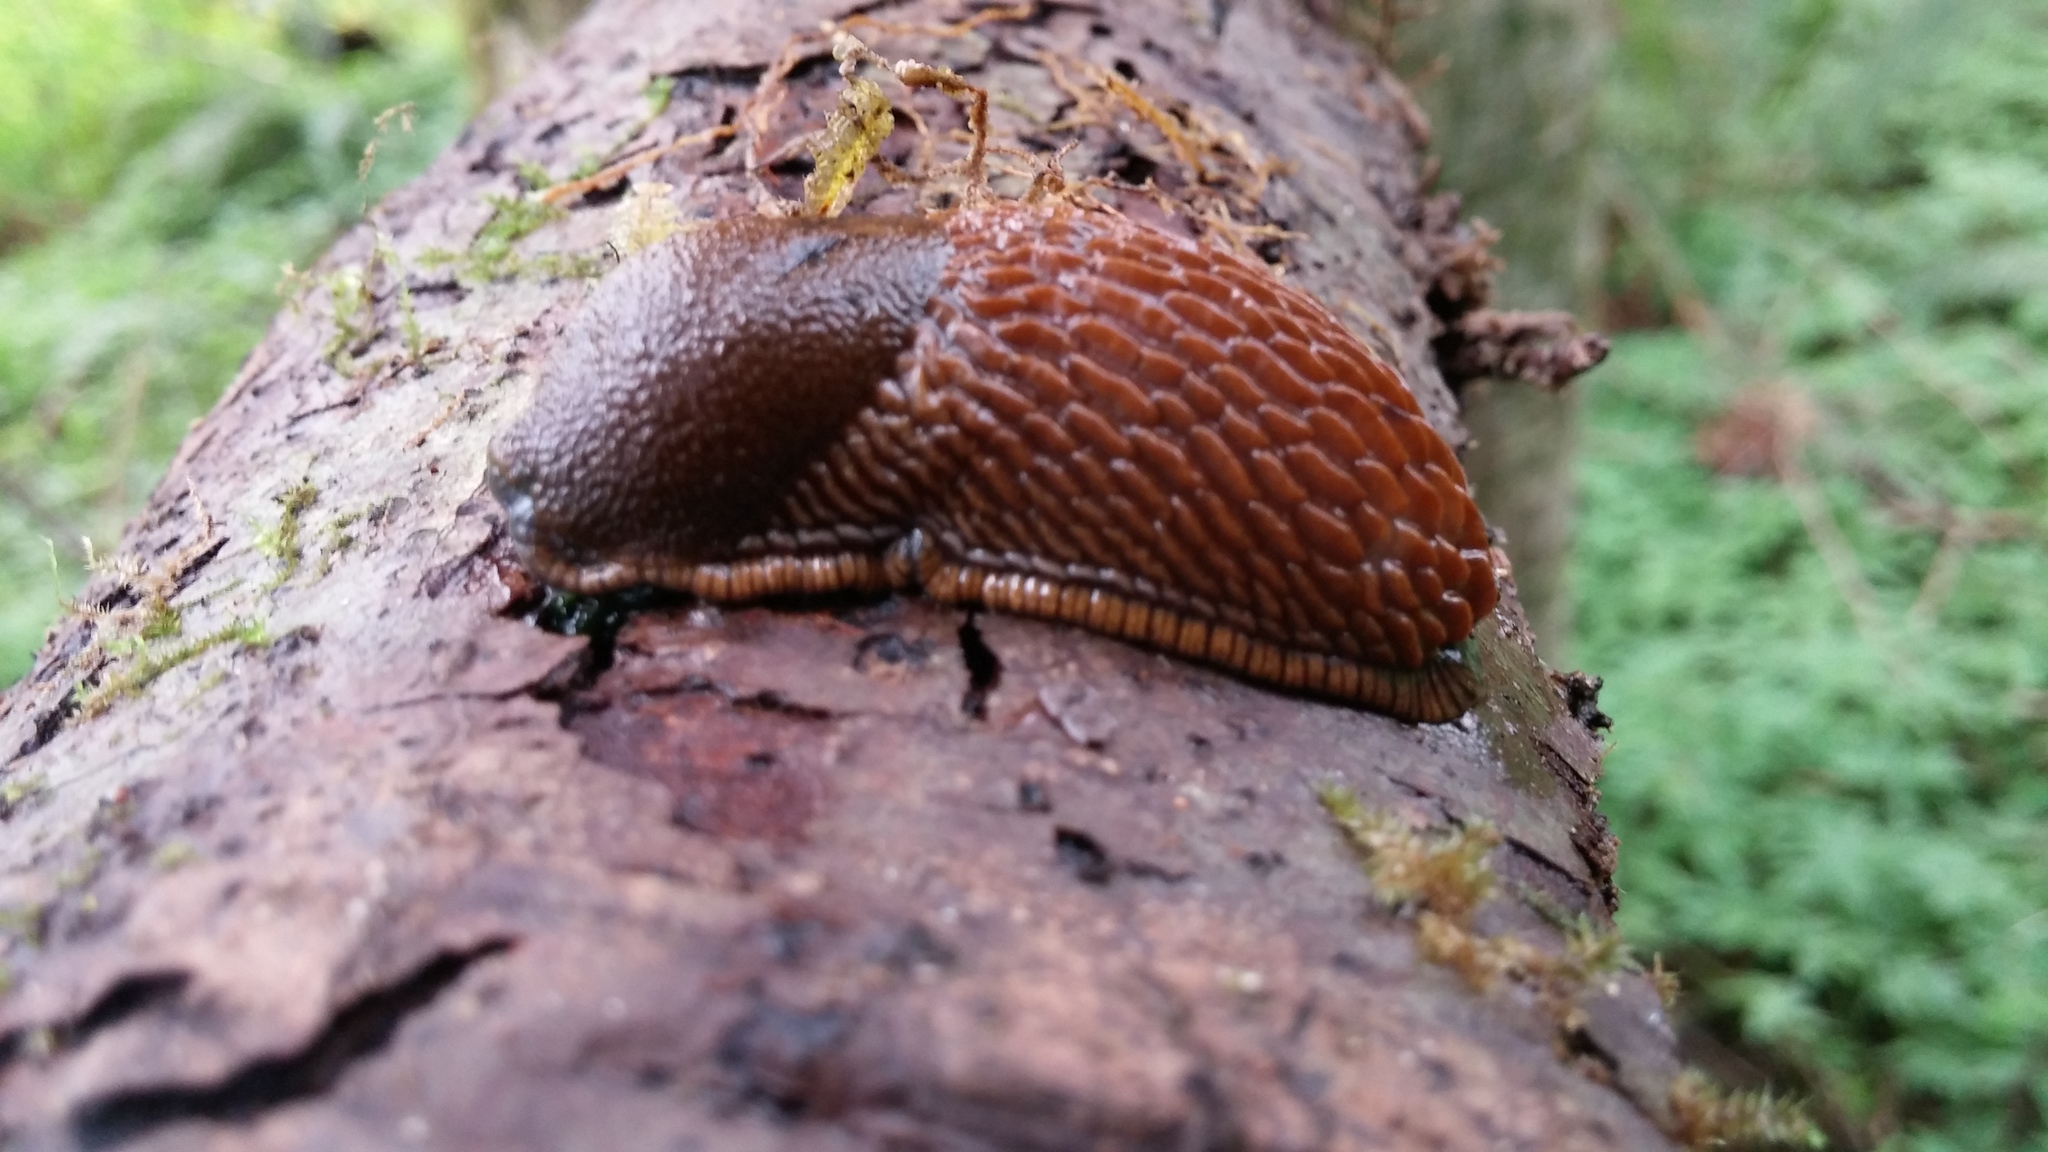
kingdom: Animalia
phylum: Mollusca
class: Gastropoda
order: Stylommatophora
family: Arionidae
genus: Arion
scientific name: Arion
